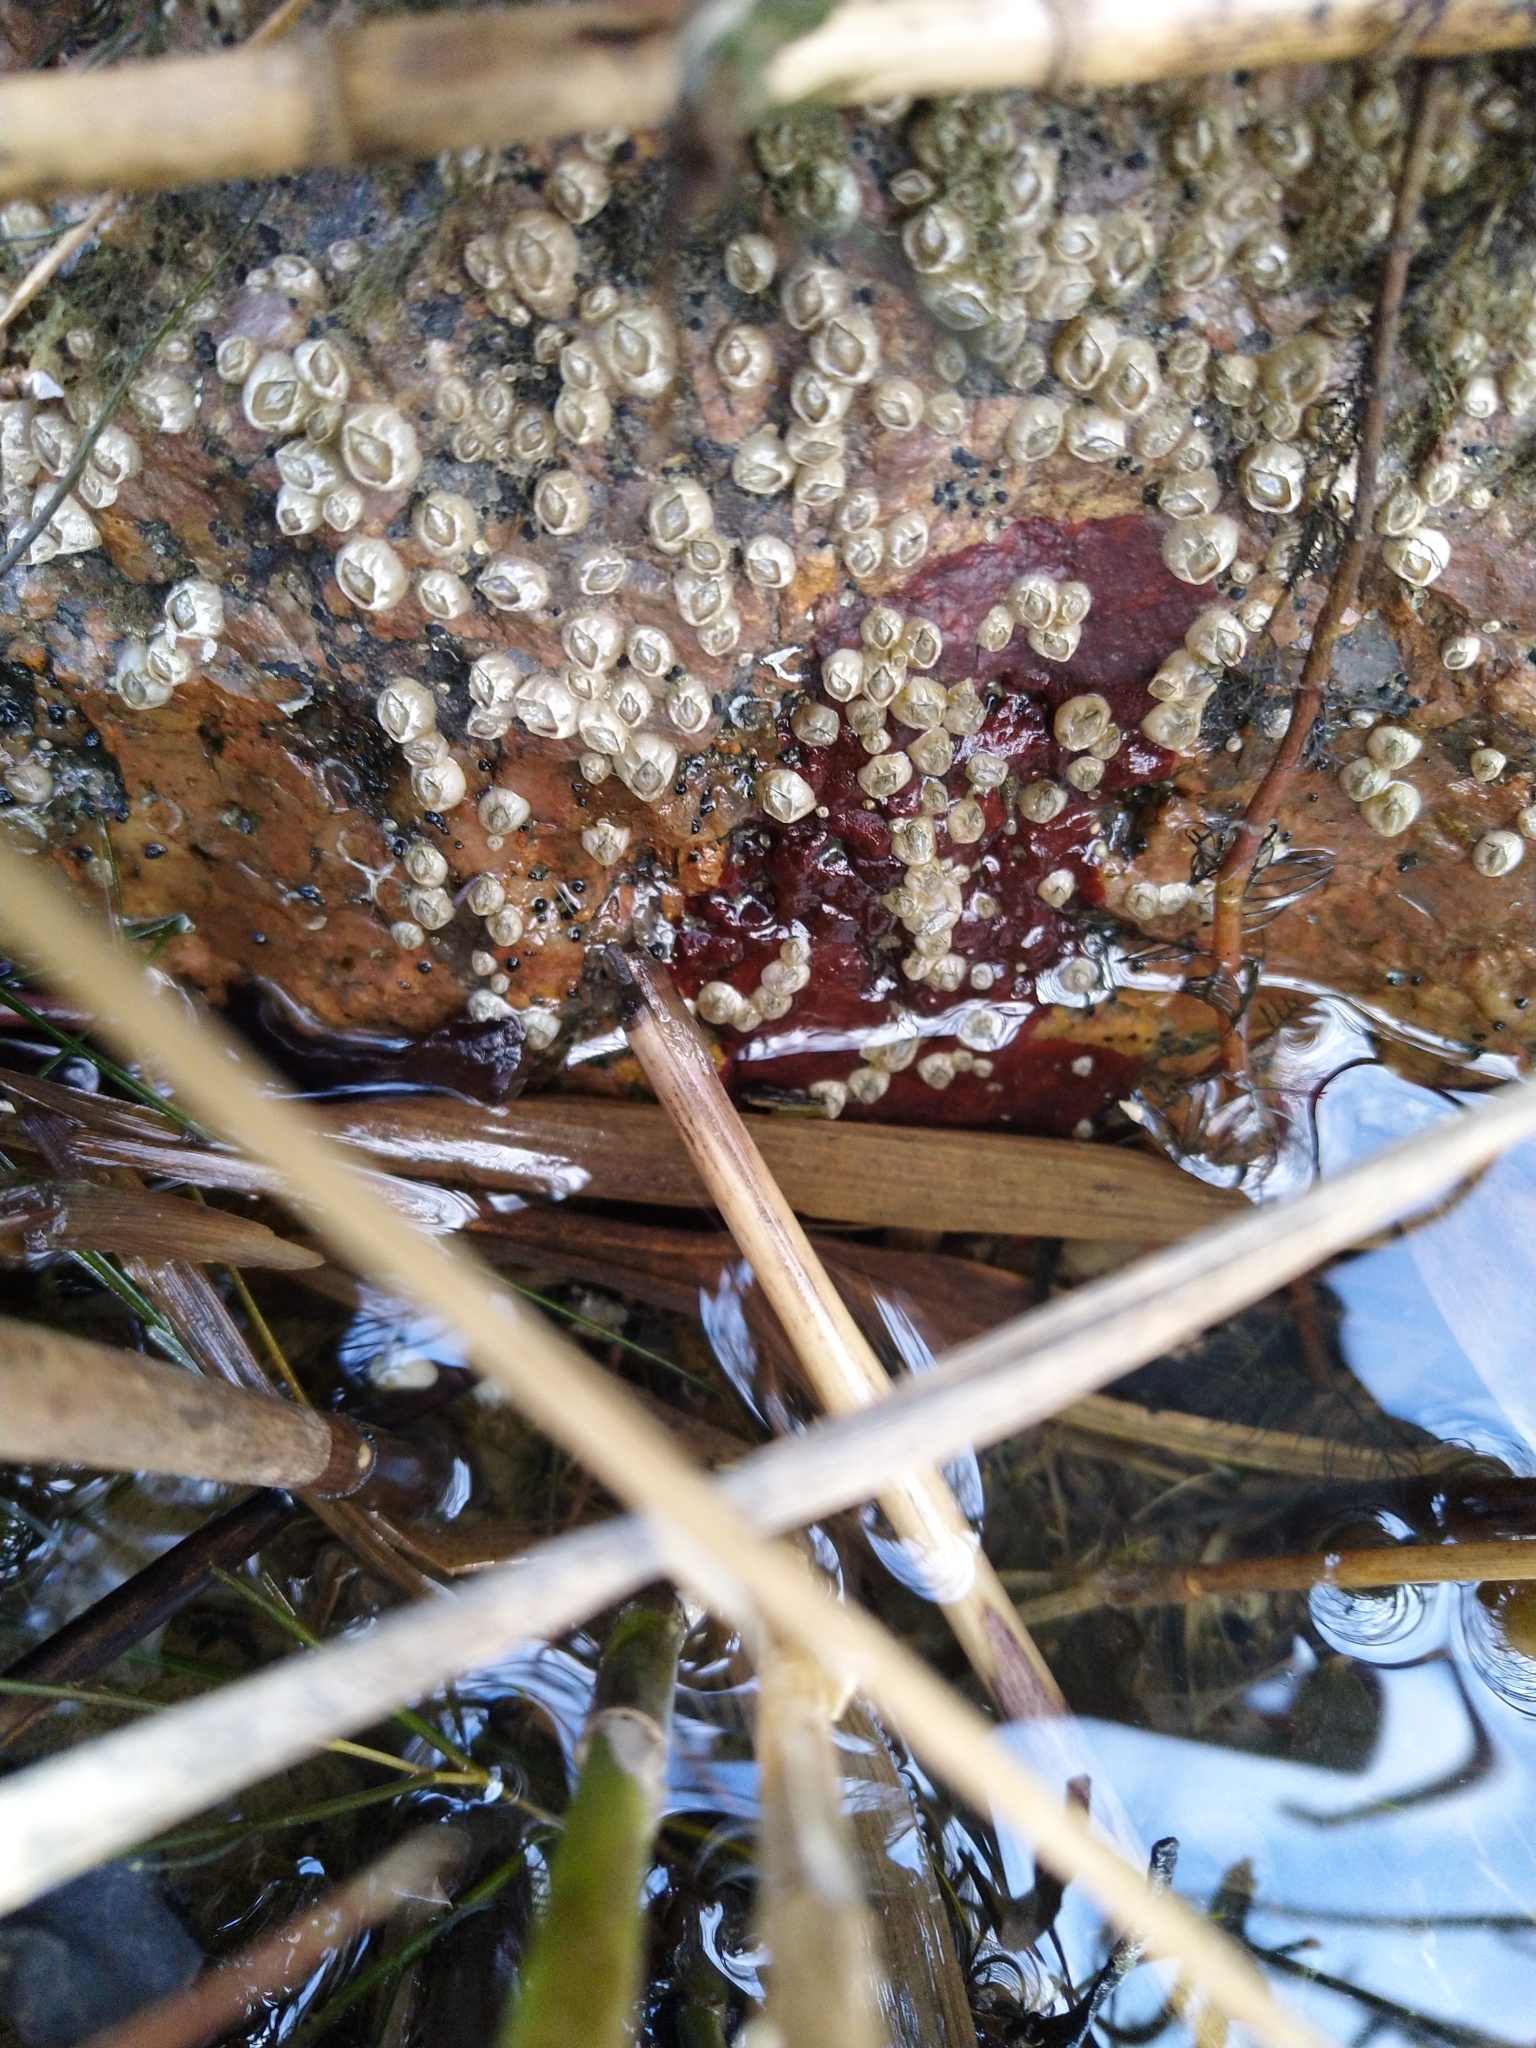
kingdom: Animalia
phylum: Arthropoda
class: Maxillopoda
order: Sessilia
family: Balanidae
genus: Amphibalanus
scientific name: Amphibalanus improvisus
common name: Bay barnacle
